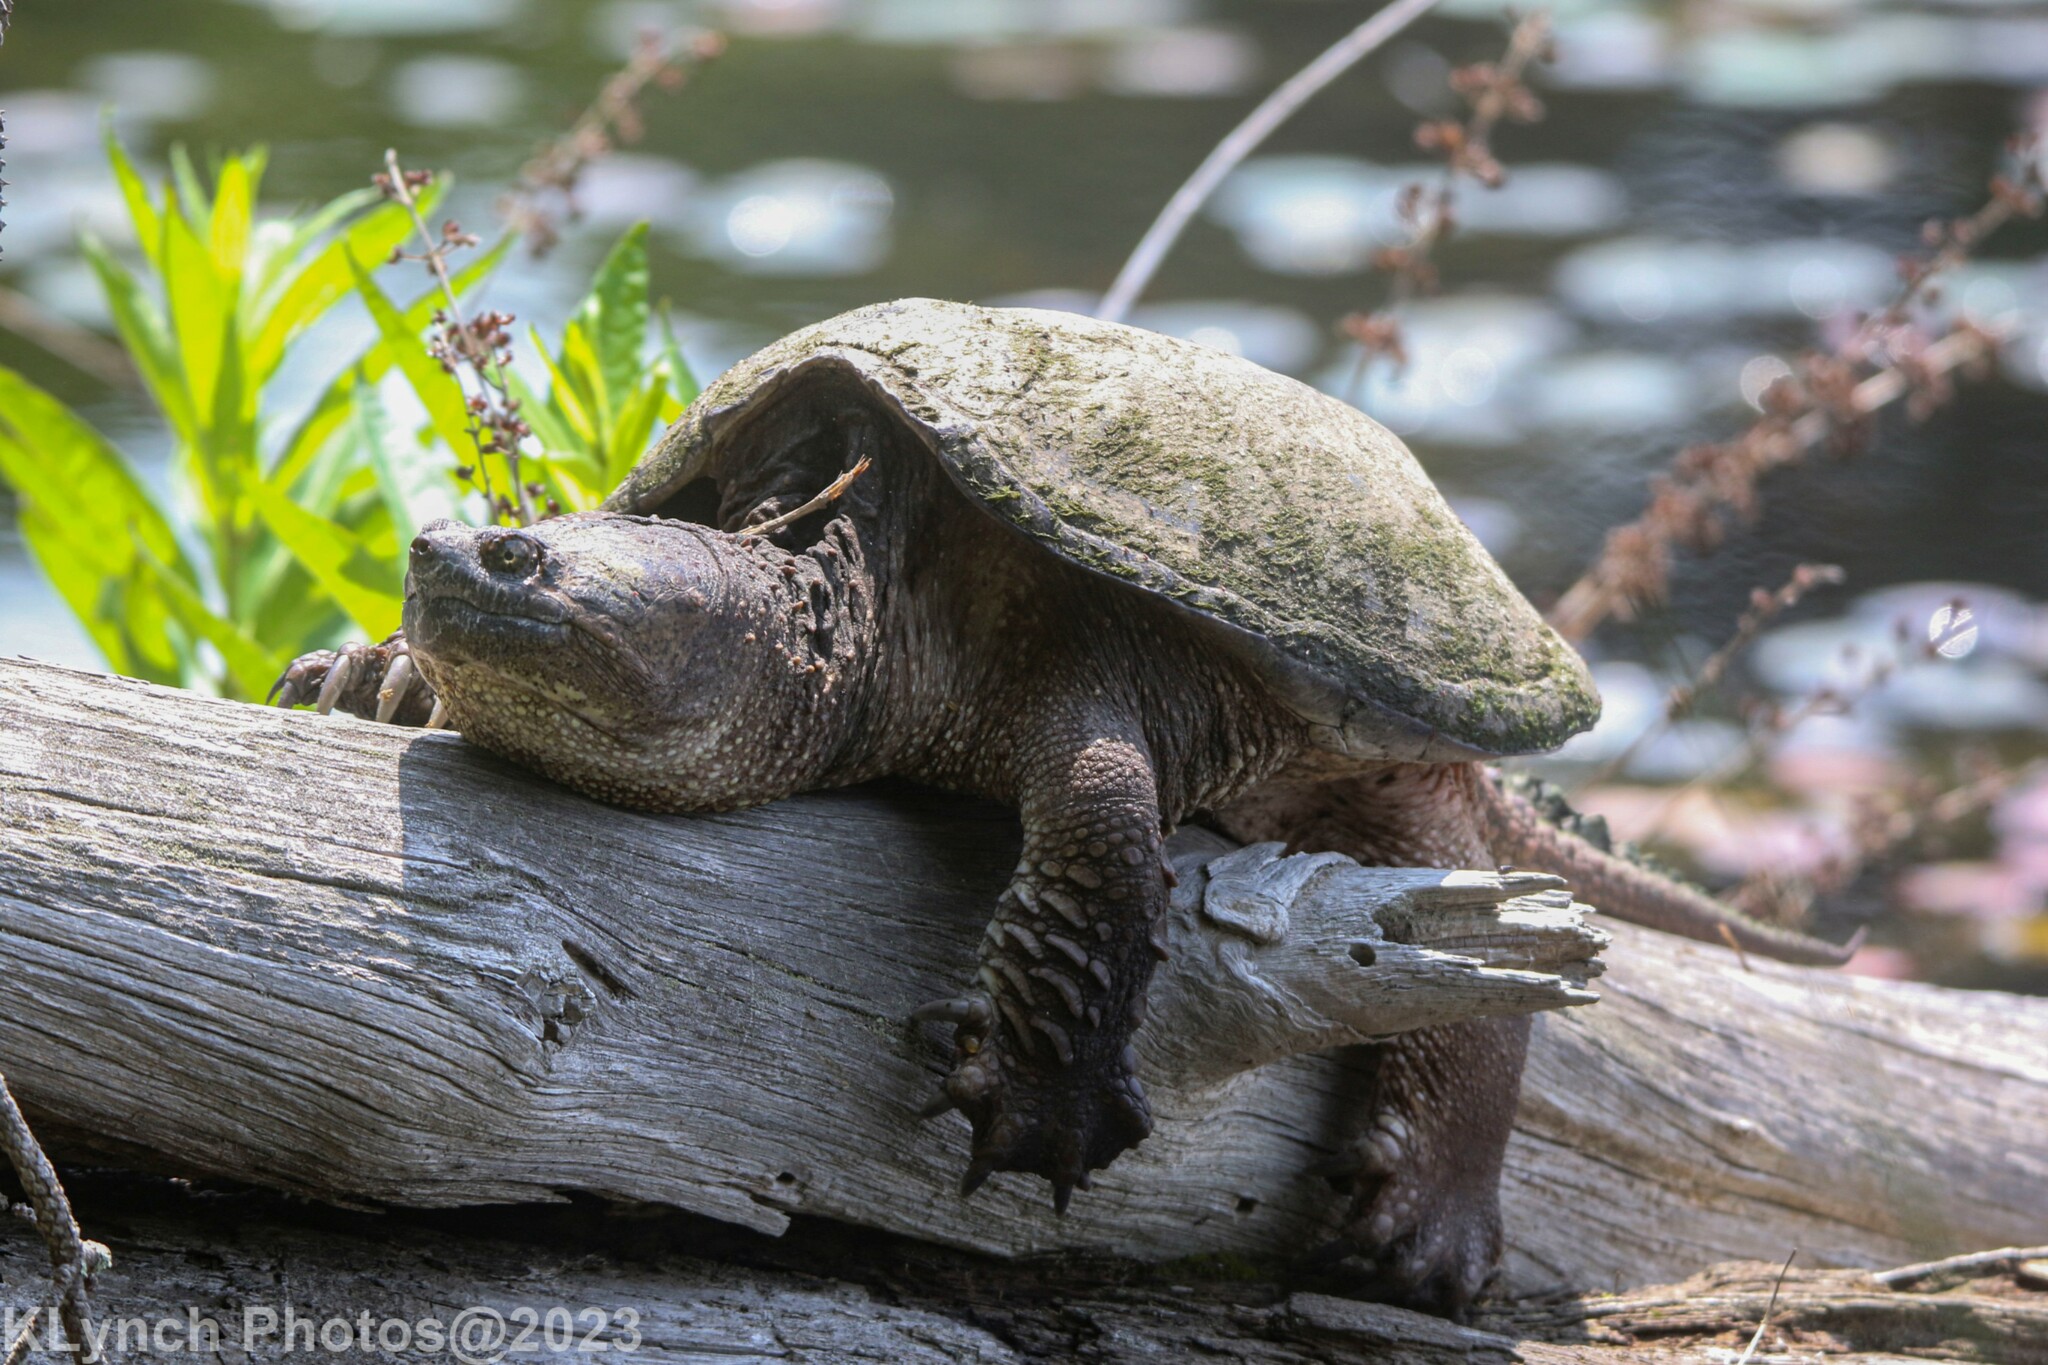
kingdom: Animalia
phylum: Chordata
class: Testudines
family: Chelydridae
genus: Chelydra
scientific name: Chelydra serpentina
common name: Common snapping turtle
